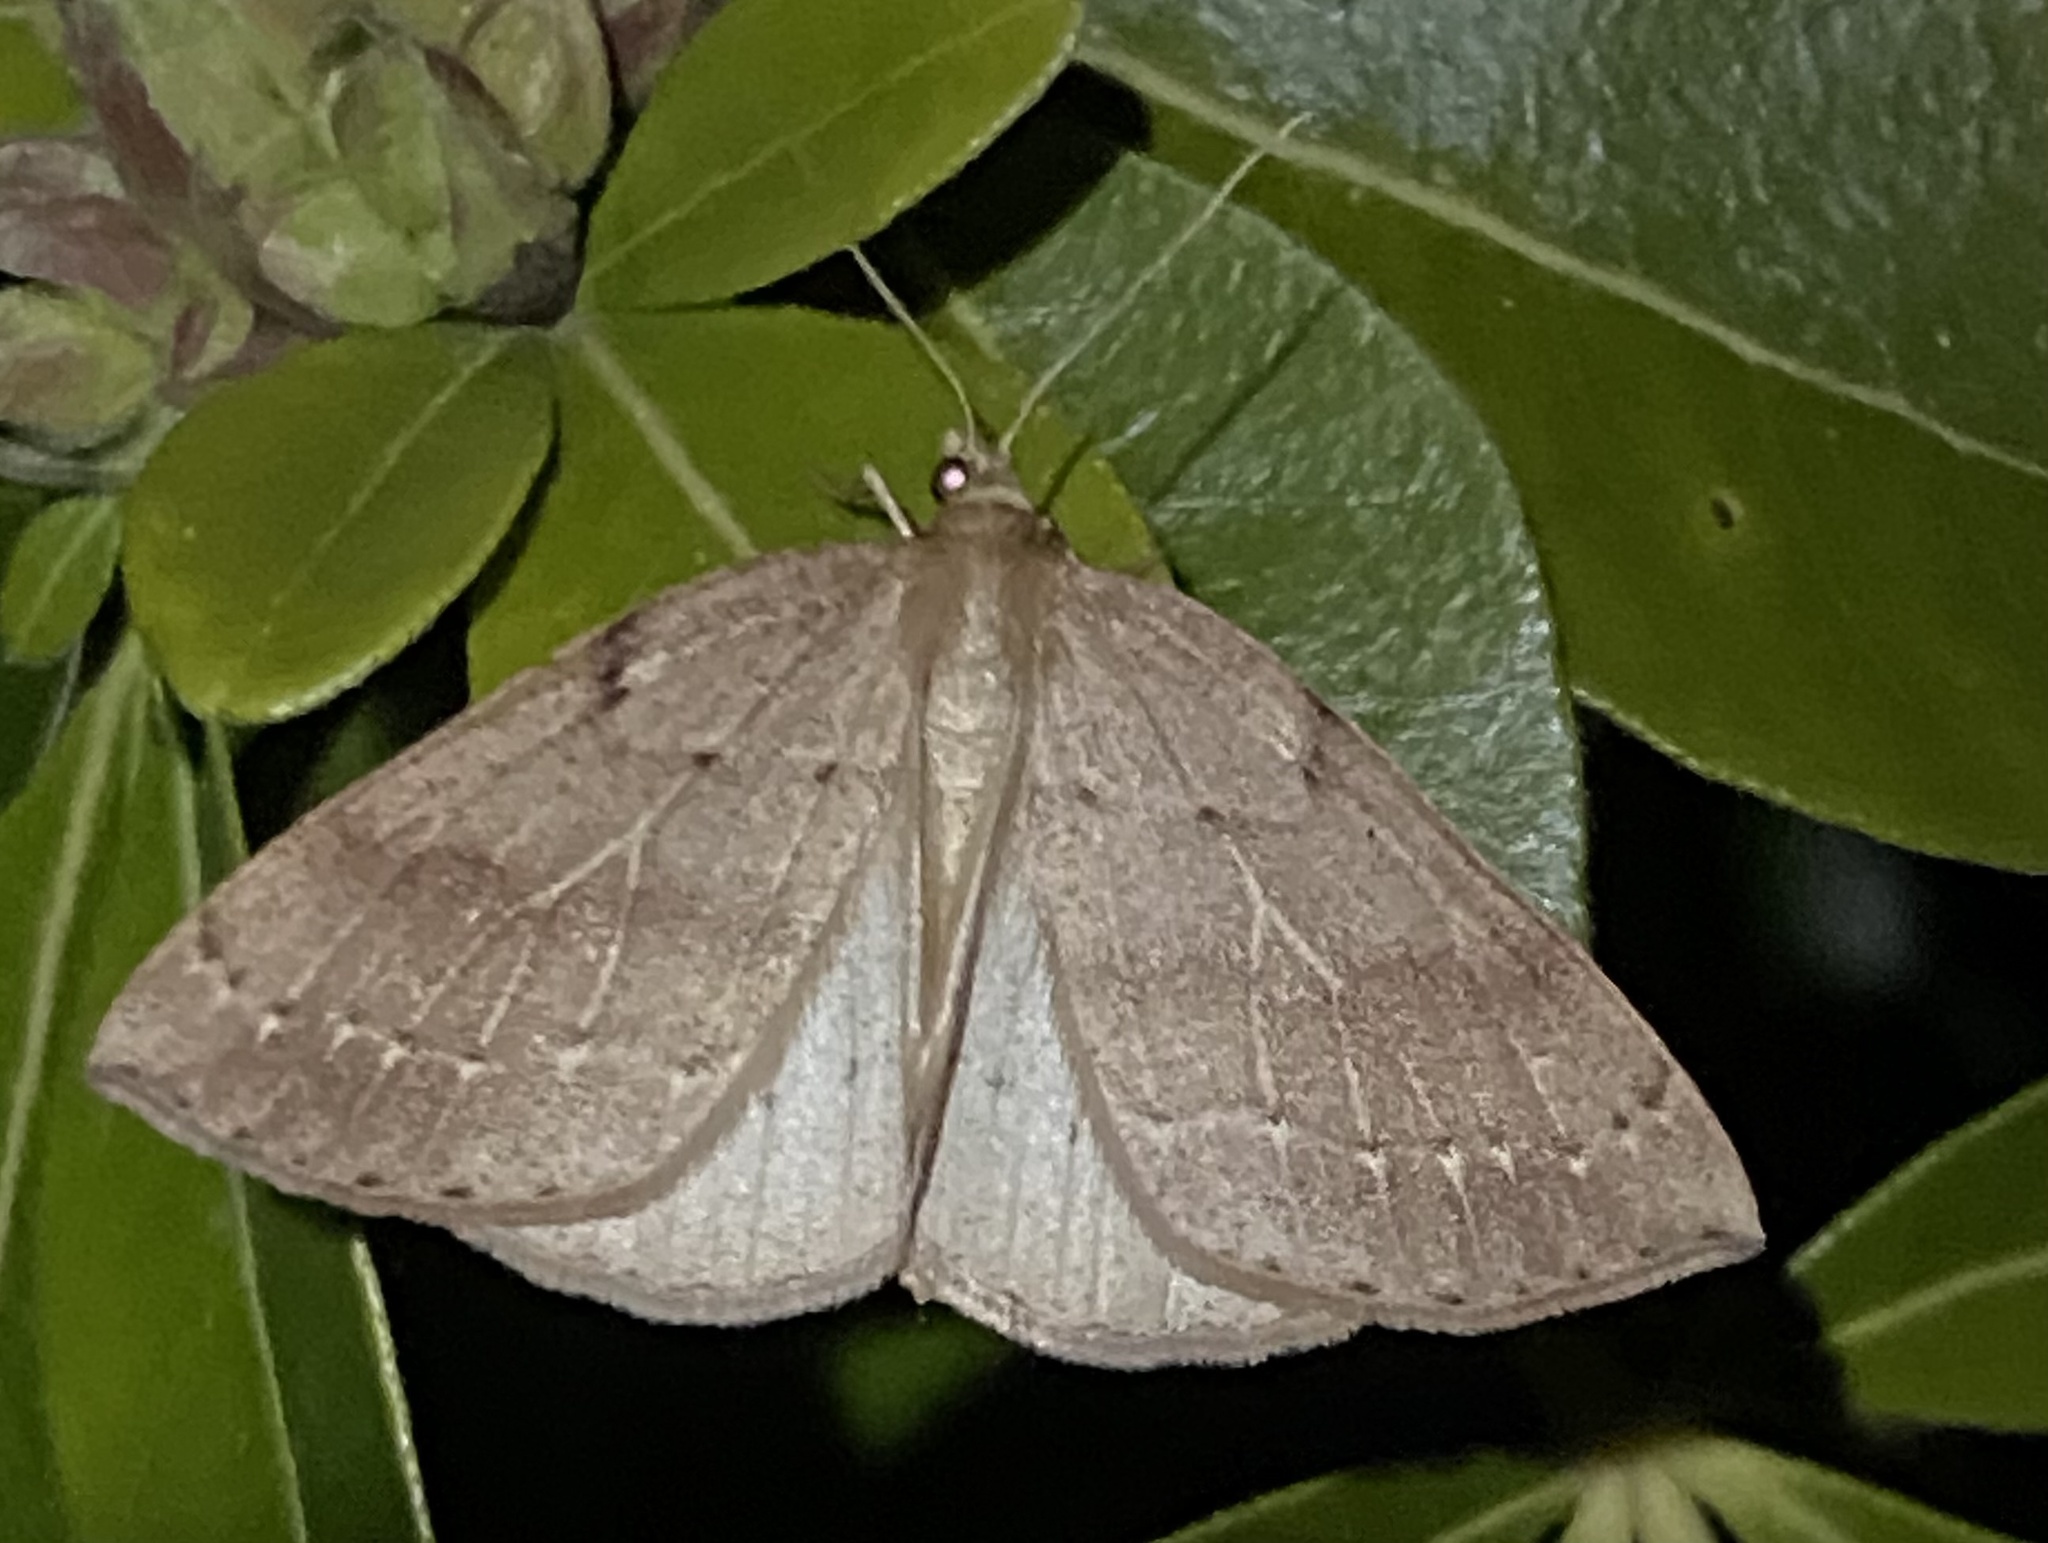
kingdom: Animalia
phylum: Arthropoda
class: Insecta
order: Lepidoptera
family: Geometridae
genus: Thallophaga
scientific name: Thallophaga hyperborea
